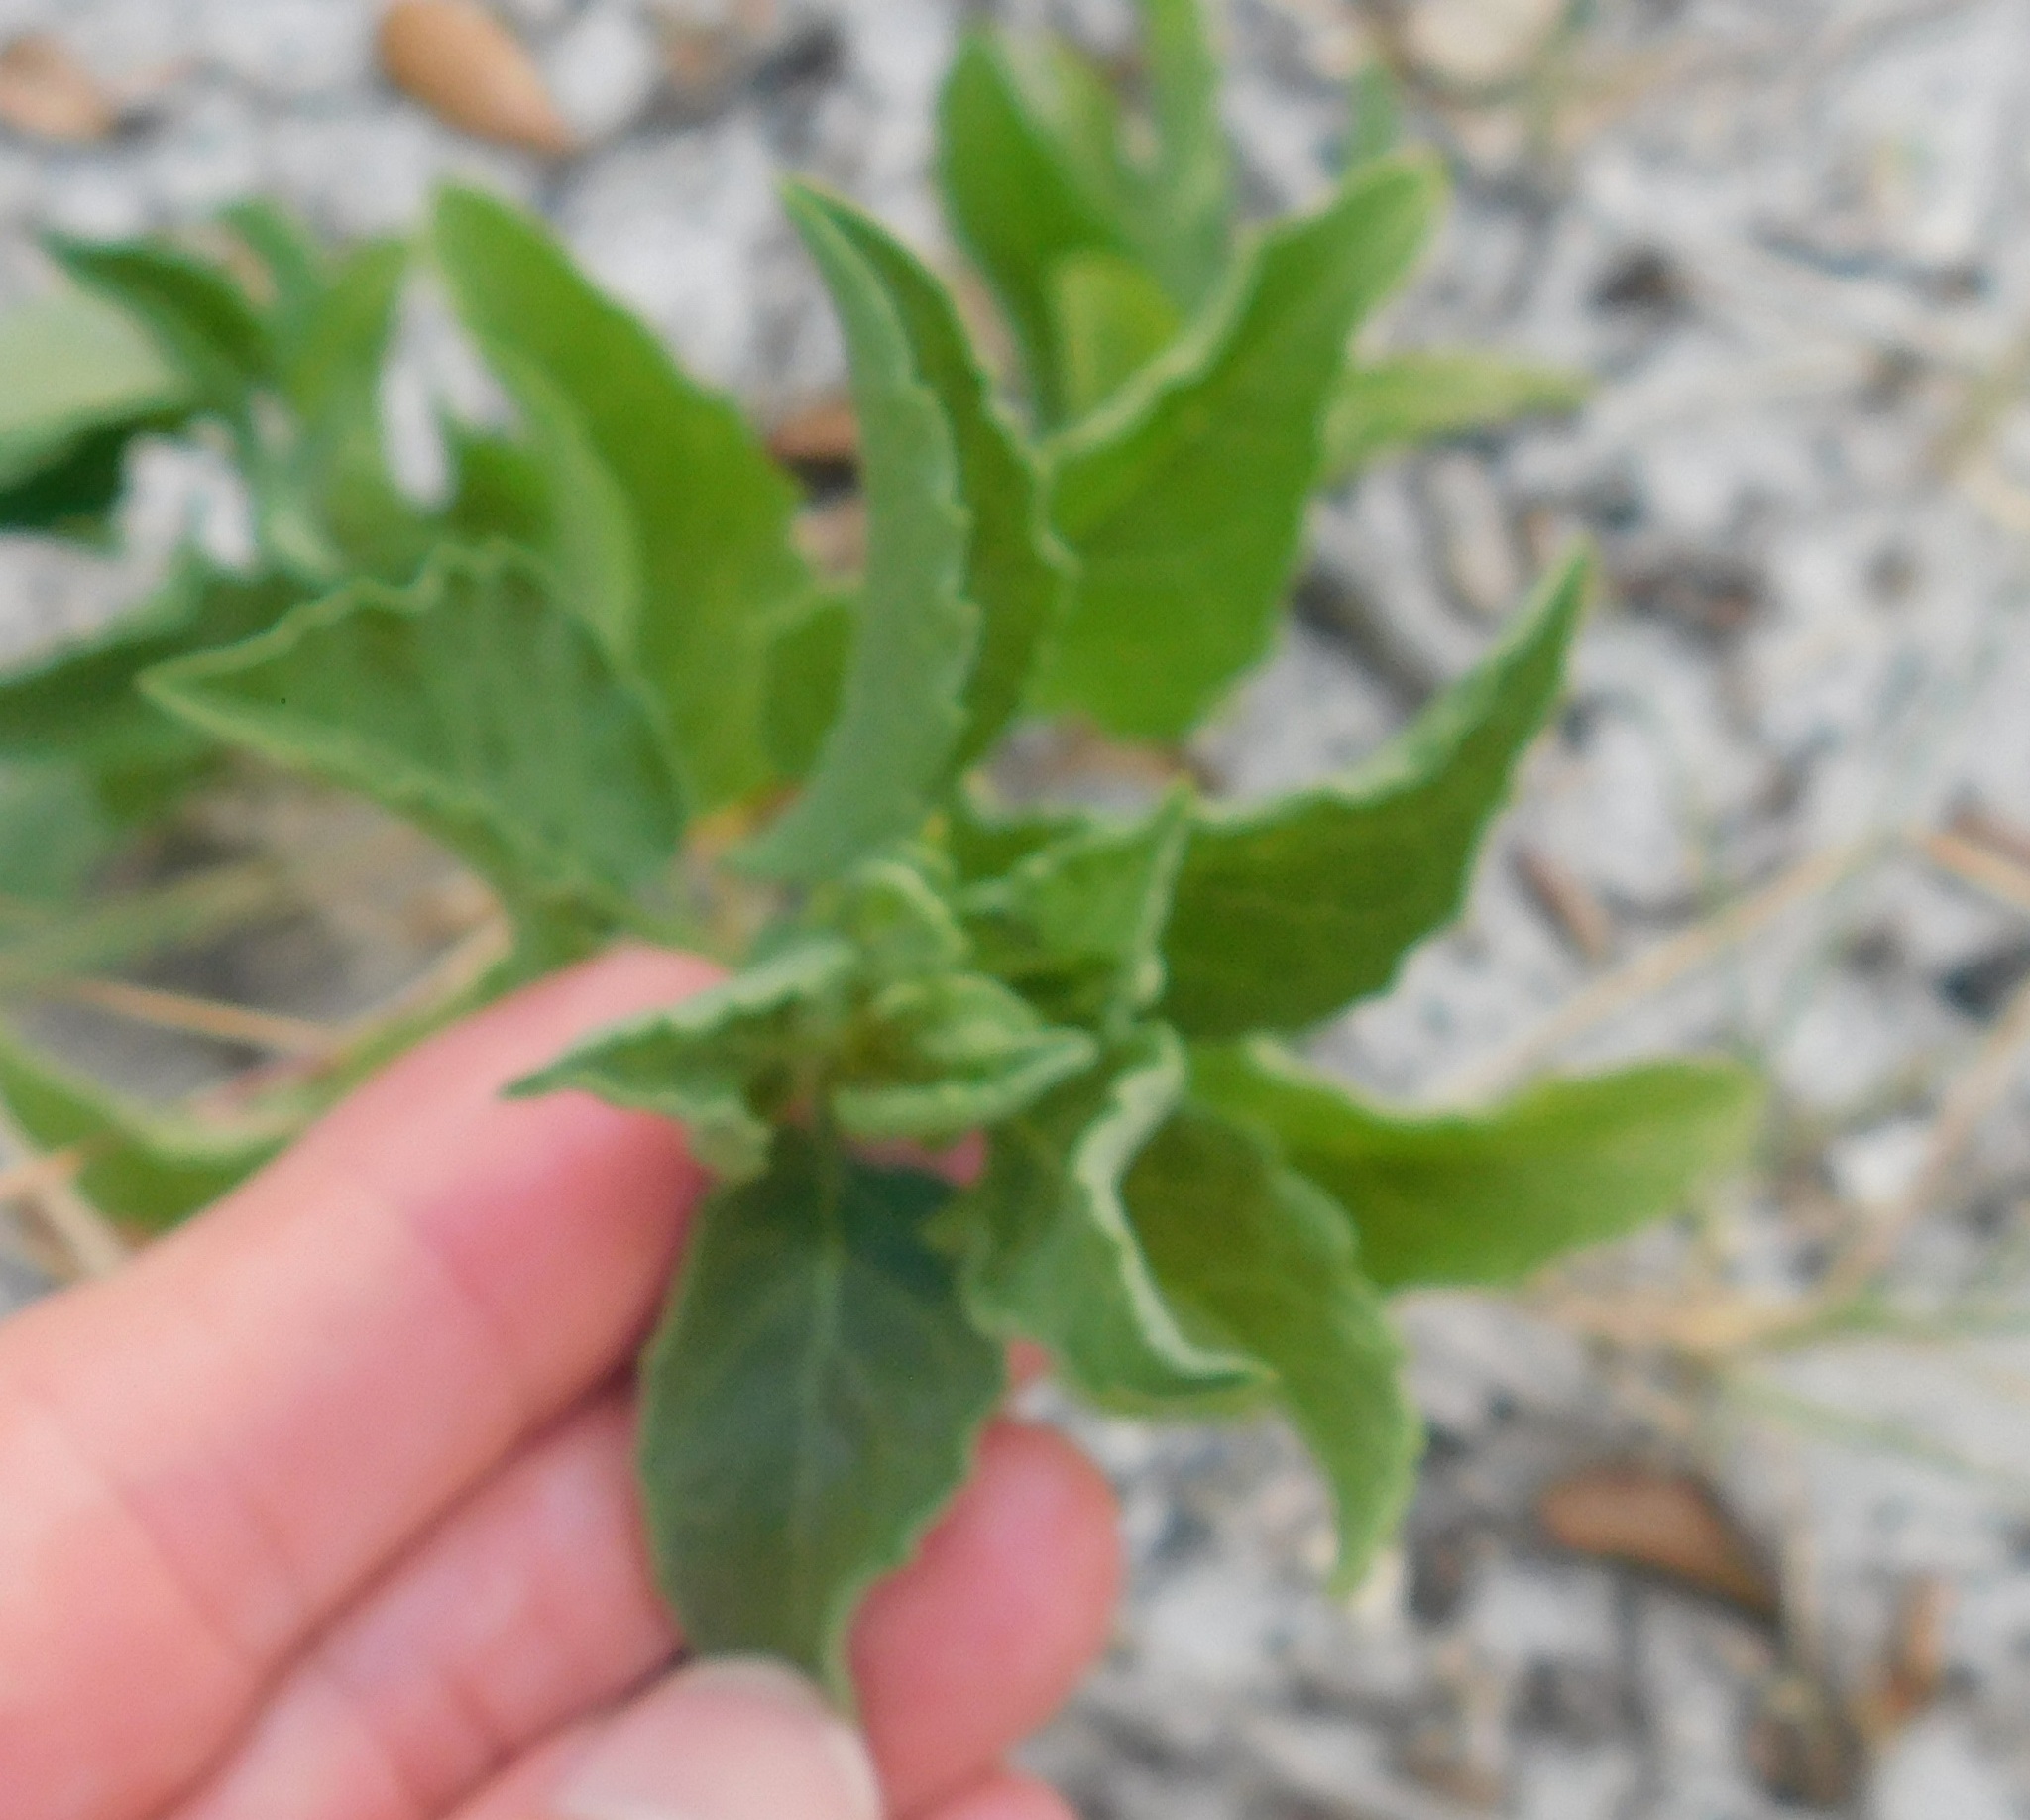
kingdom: Plantae
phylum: Tracheophyta
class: Magnoliopsida
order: Asterales
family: Asteraceae
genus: Heterotheca
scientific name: Heterotheca subaxillaris
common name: Camphorweed
